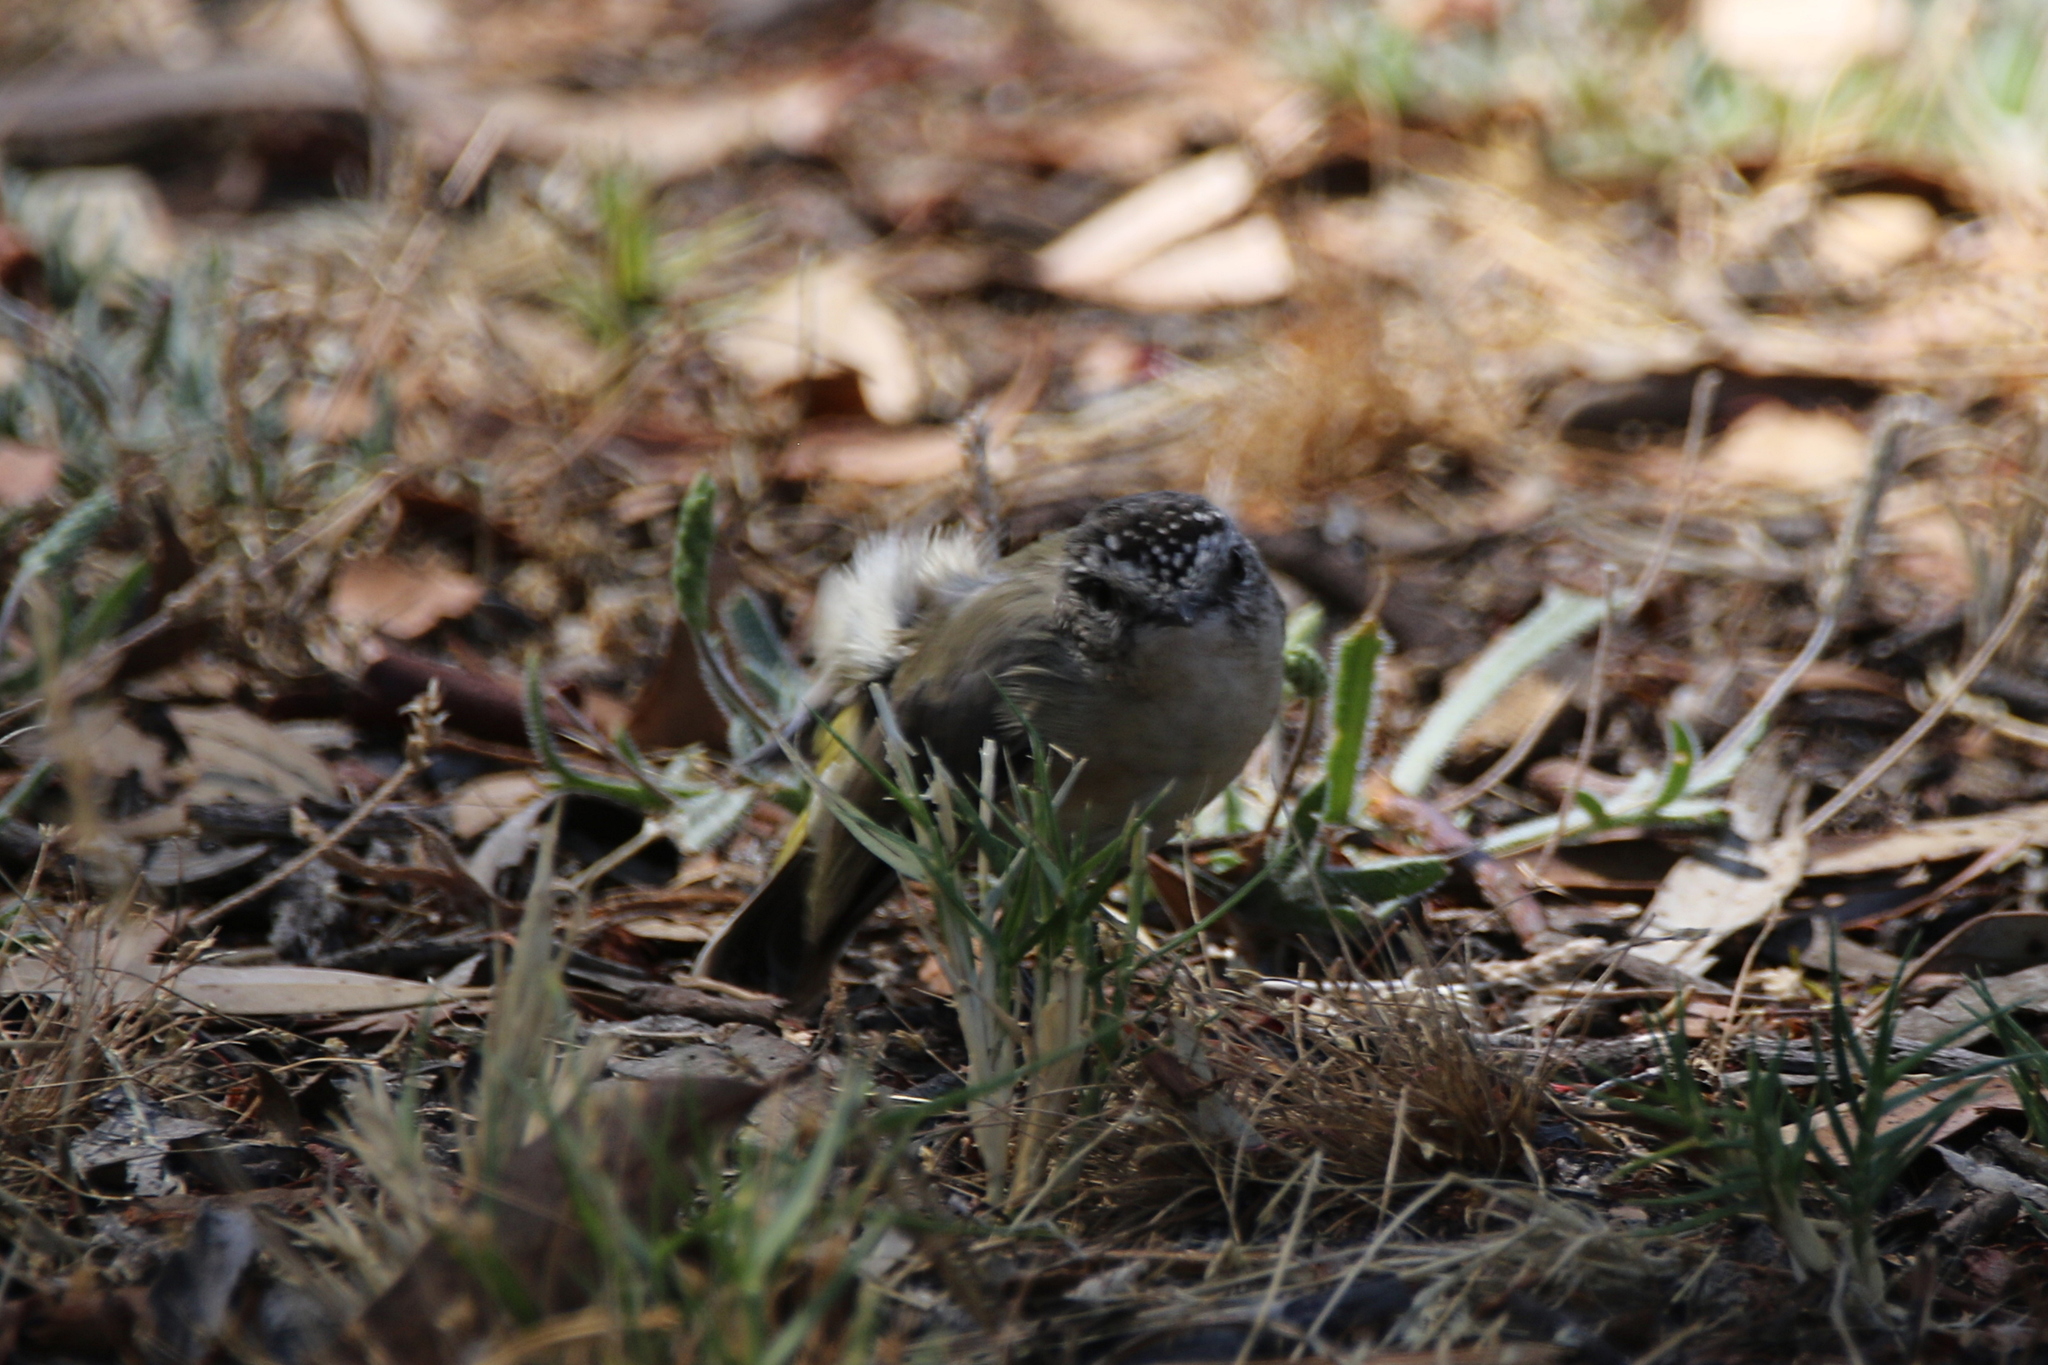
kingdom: Animalia
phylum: Chordata
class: Aves
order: Passeriformes
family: Acanthizidae
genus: Acanthiza
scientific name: Acanthiza chrysorrhoa
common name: Yellow-rumped thornbill
